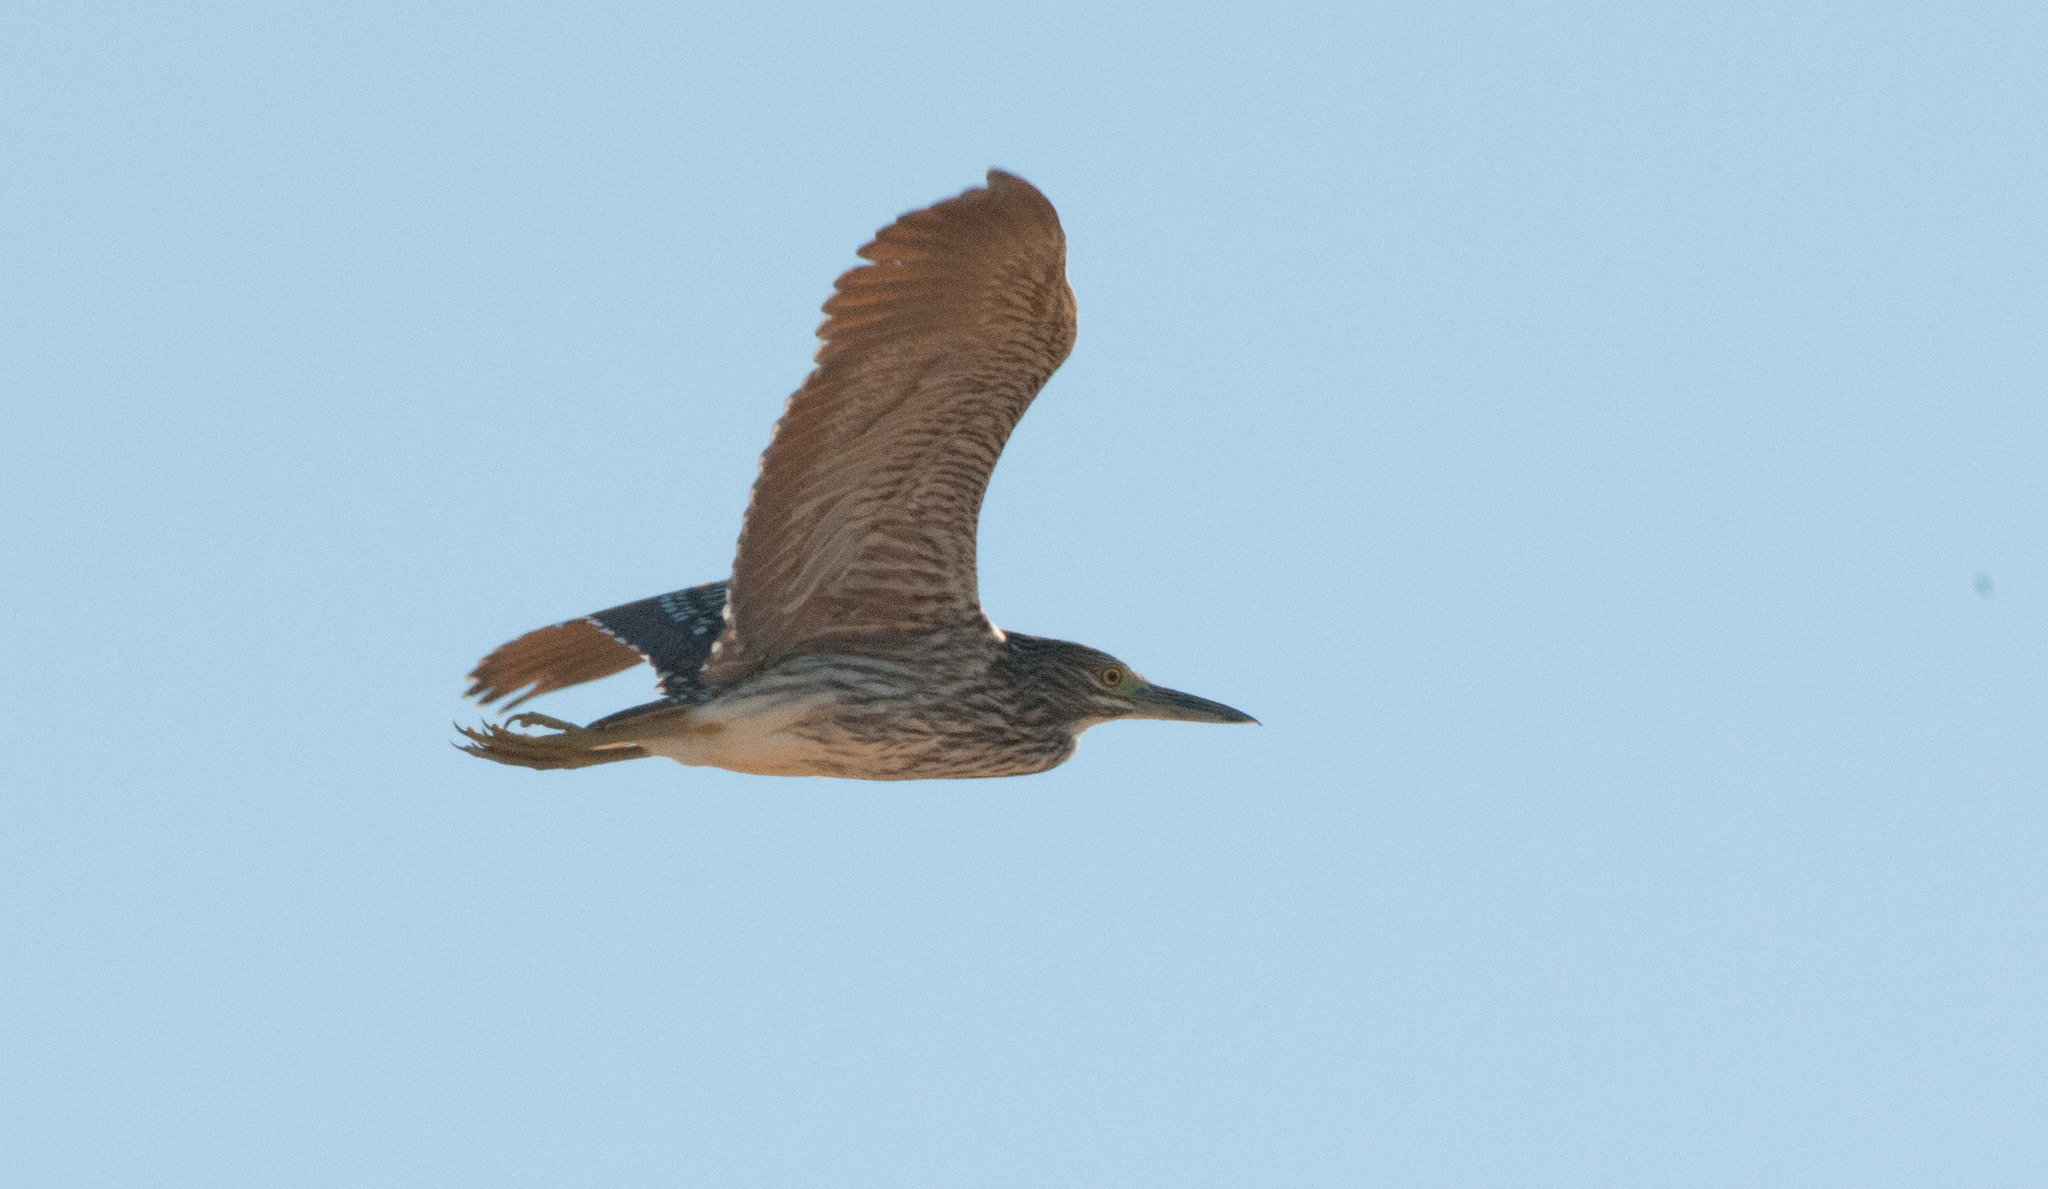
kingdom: Animalia
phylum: Chordata
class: Aves
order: Pelecaniformes
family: Ardeidae
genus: Nycticorax
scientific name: Nycticorax caledonicus
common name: Rufous night-heron
